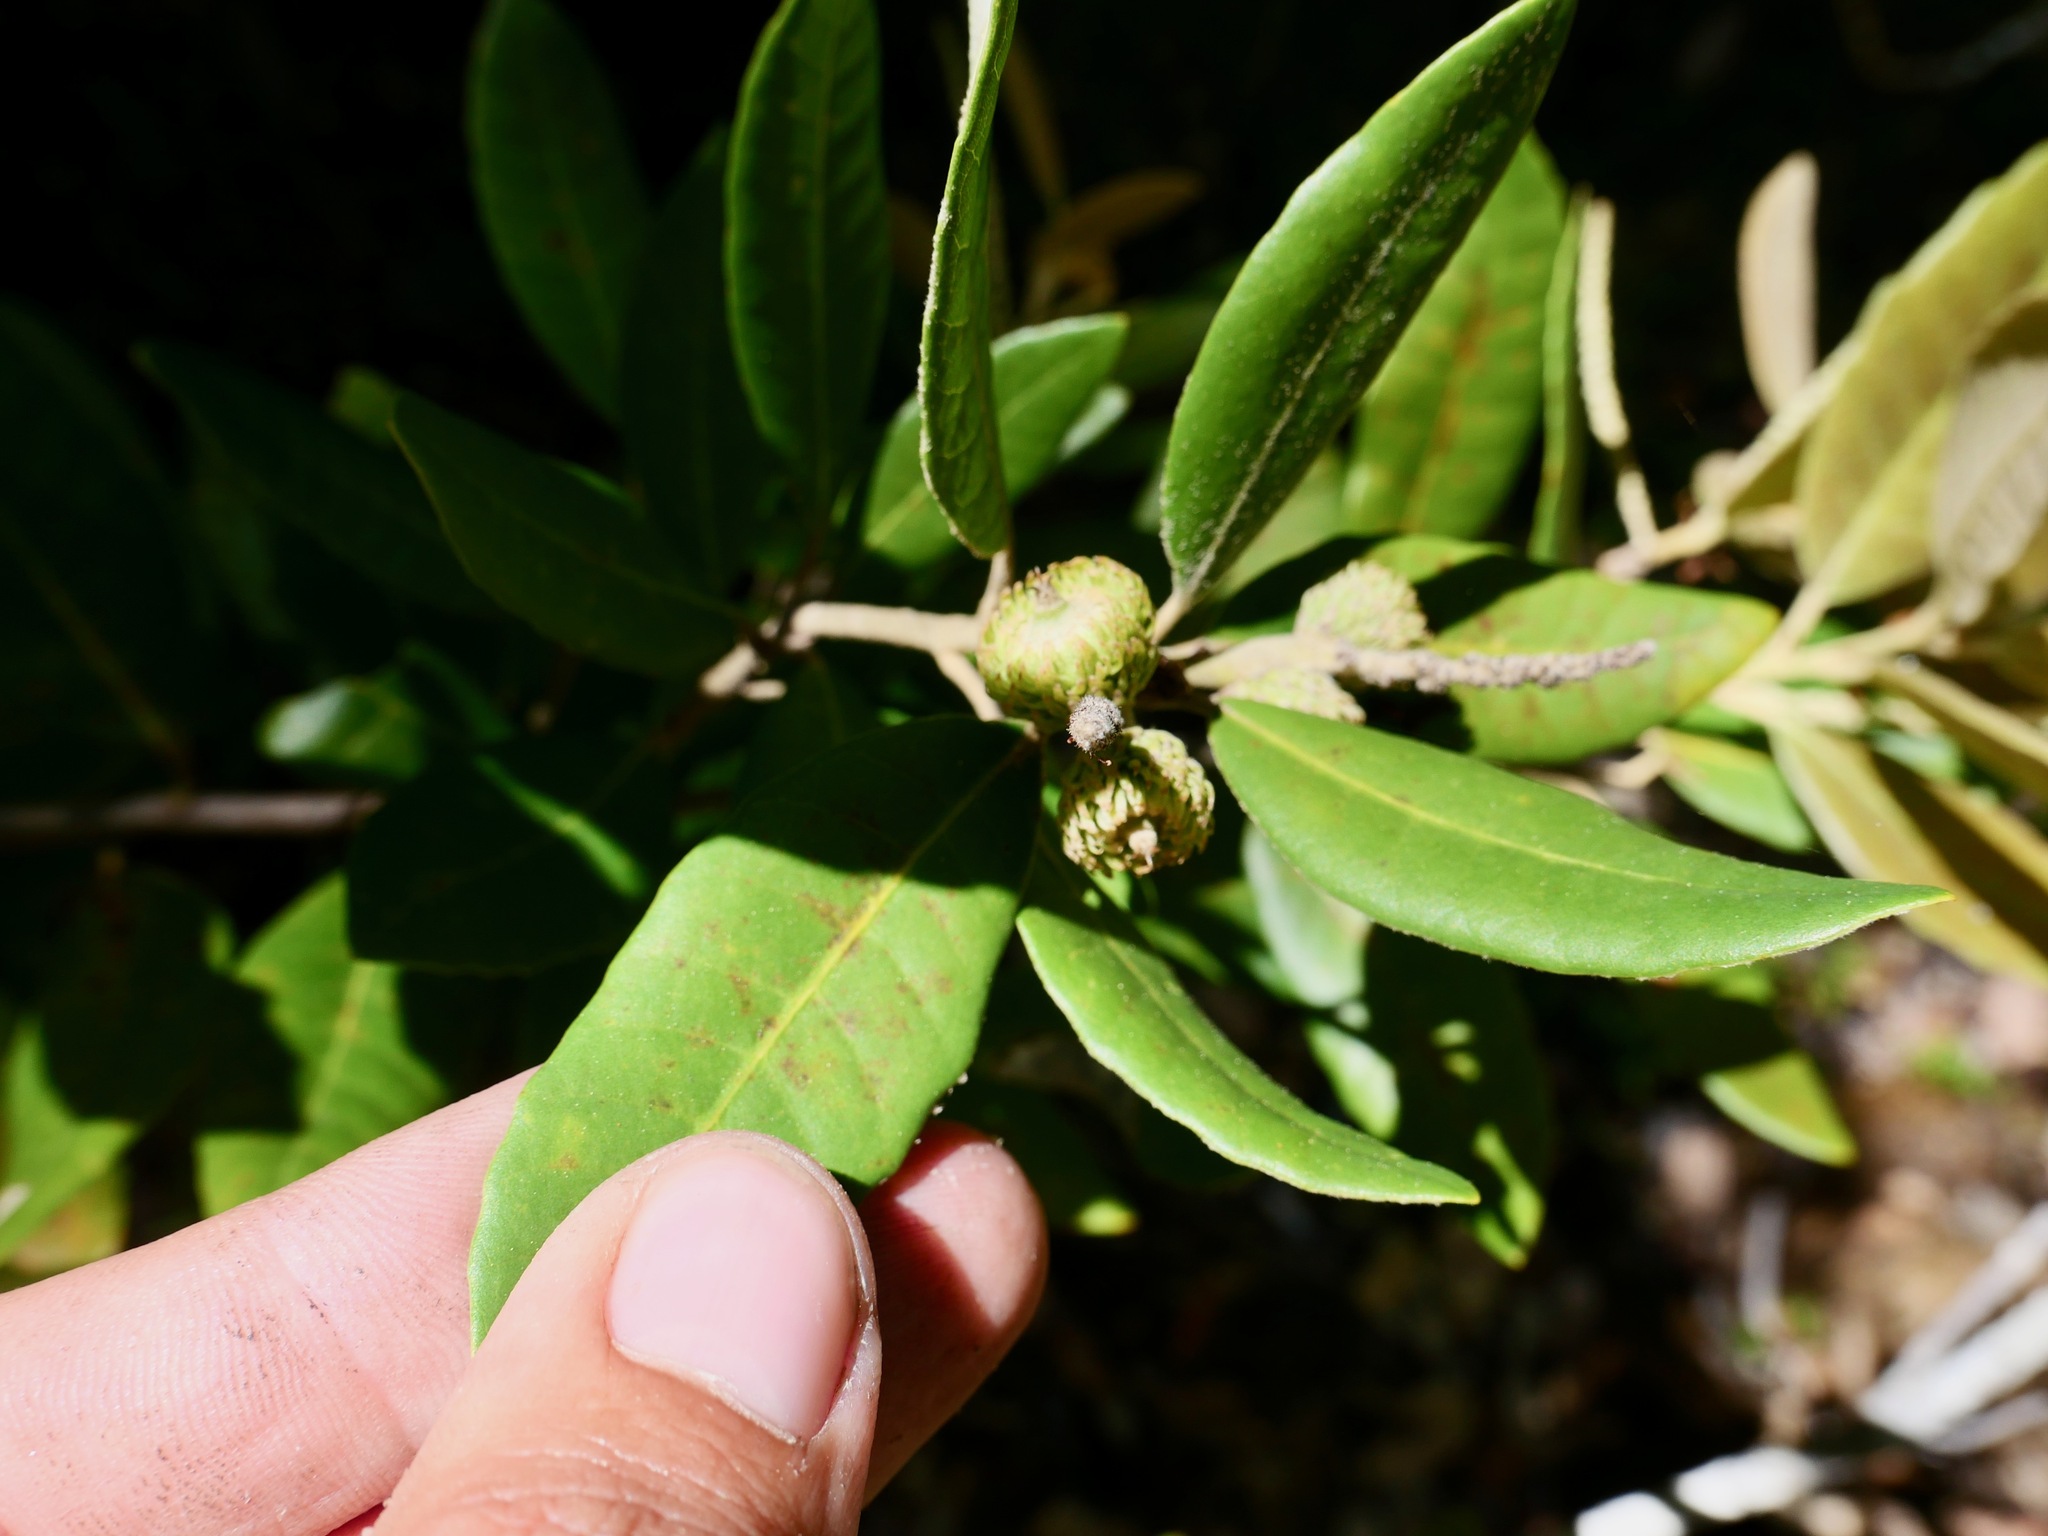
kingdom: Plantae
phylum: Tracheophyta
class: Magnoliopsida
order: Fagales
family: Fagaceae
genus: Notholithocarpus
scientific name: Notholithocarpus densiflorus
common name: Tan bark oak
